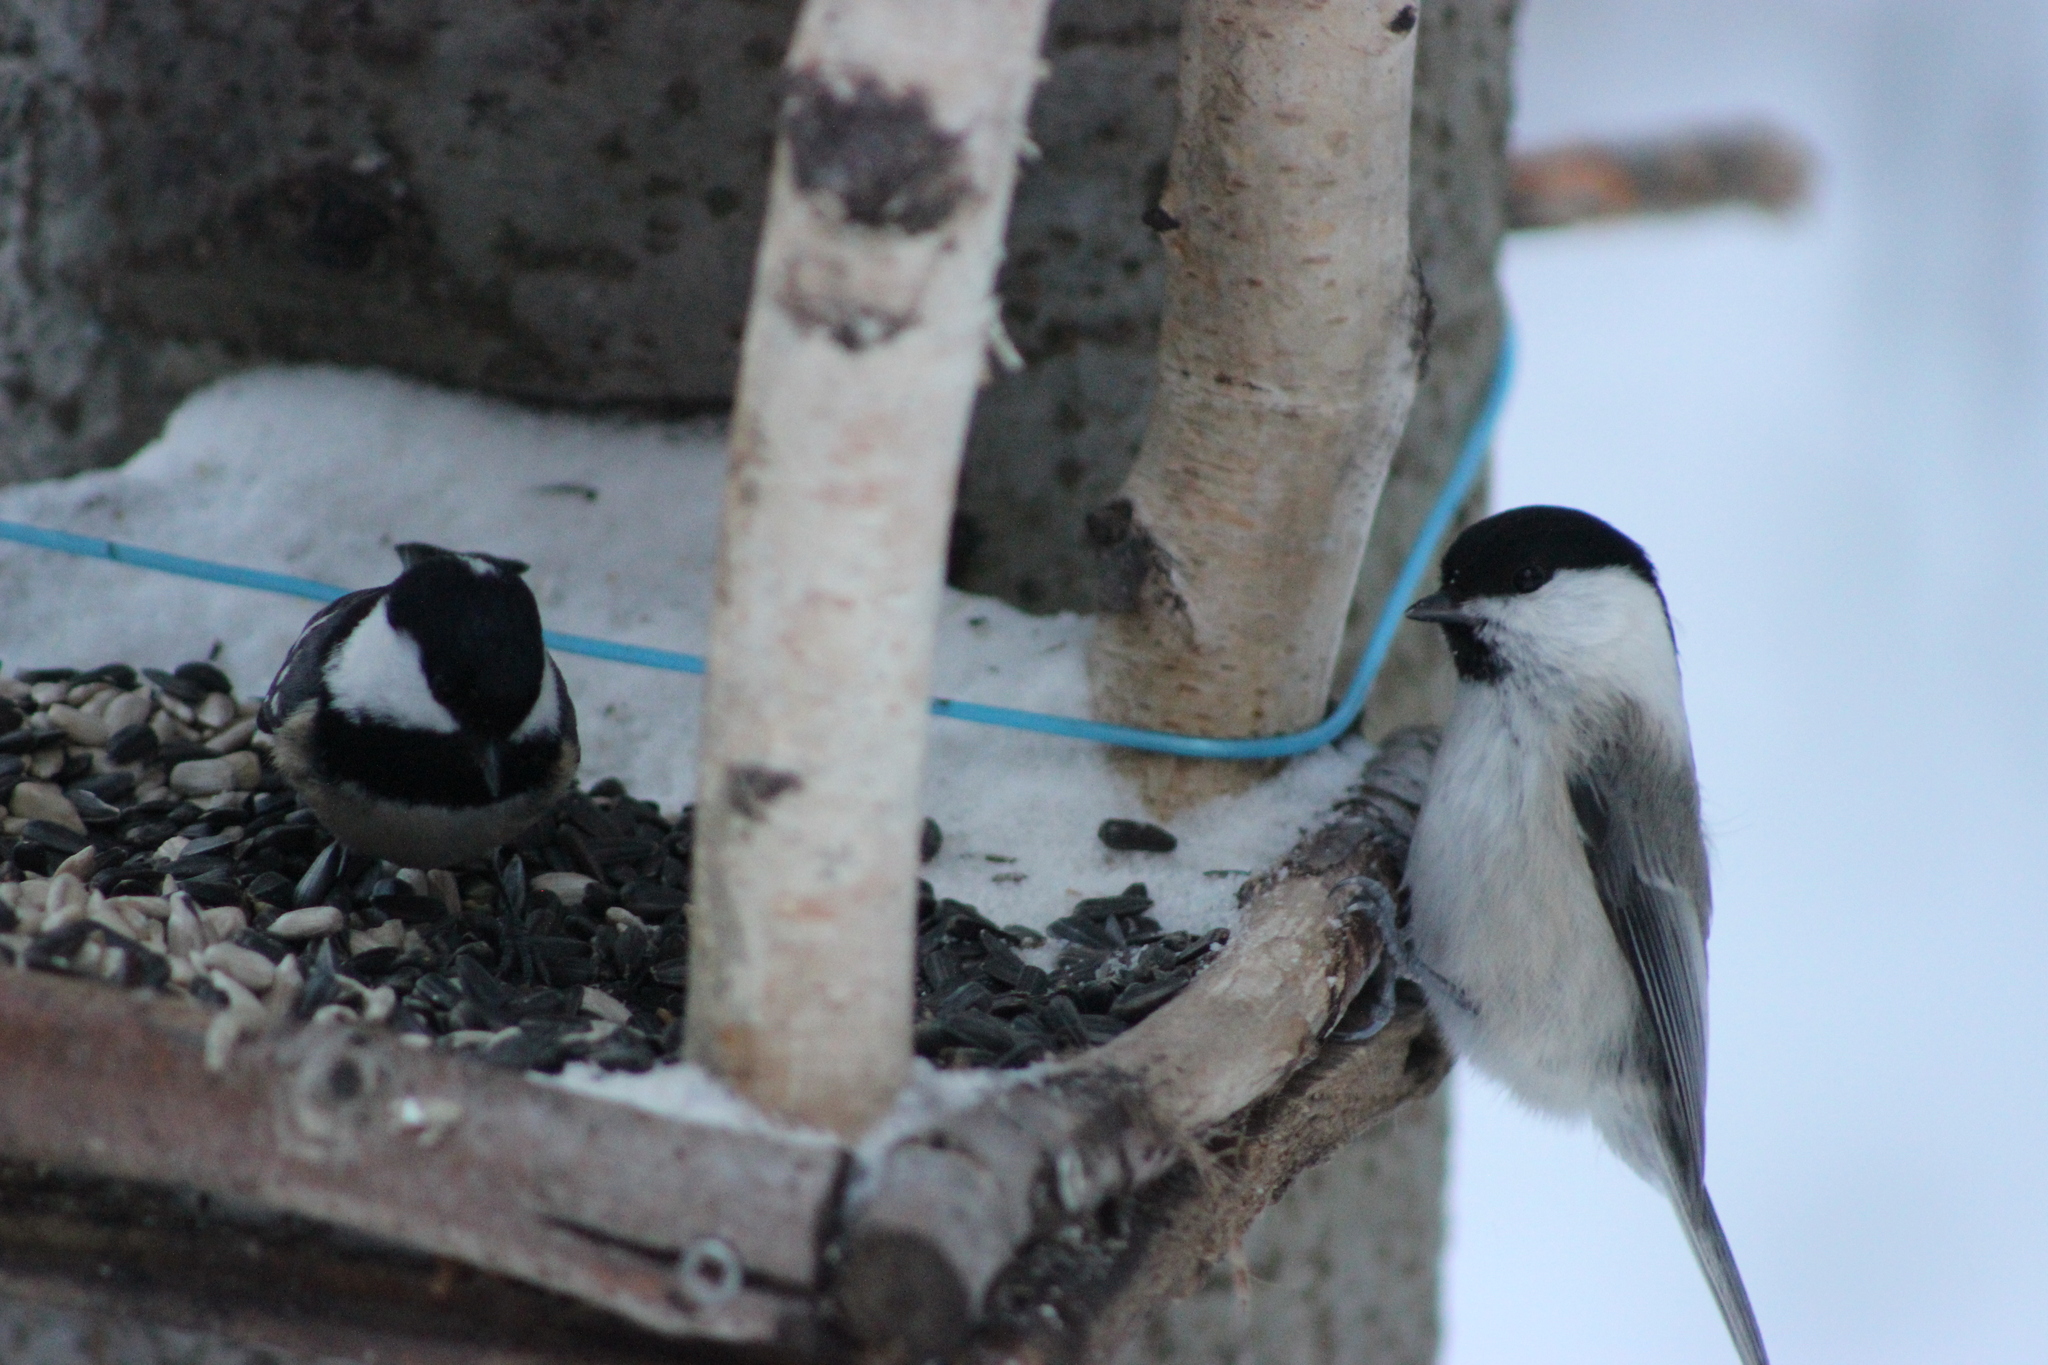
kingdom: Animalia
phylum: Chordata
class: Aves
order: Passeriformes
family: Paridae
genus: Poecile
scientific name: Poecile montanus
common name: Willow tit
